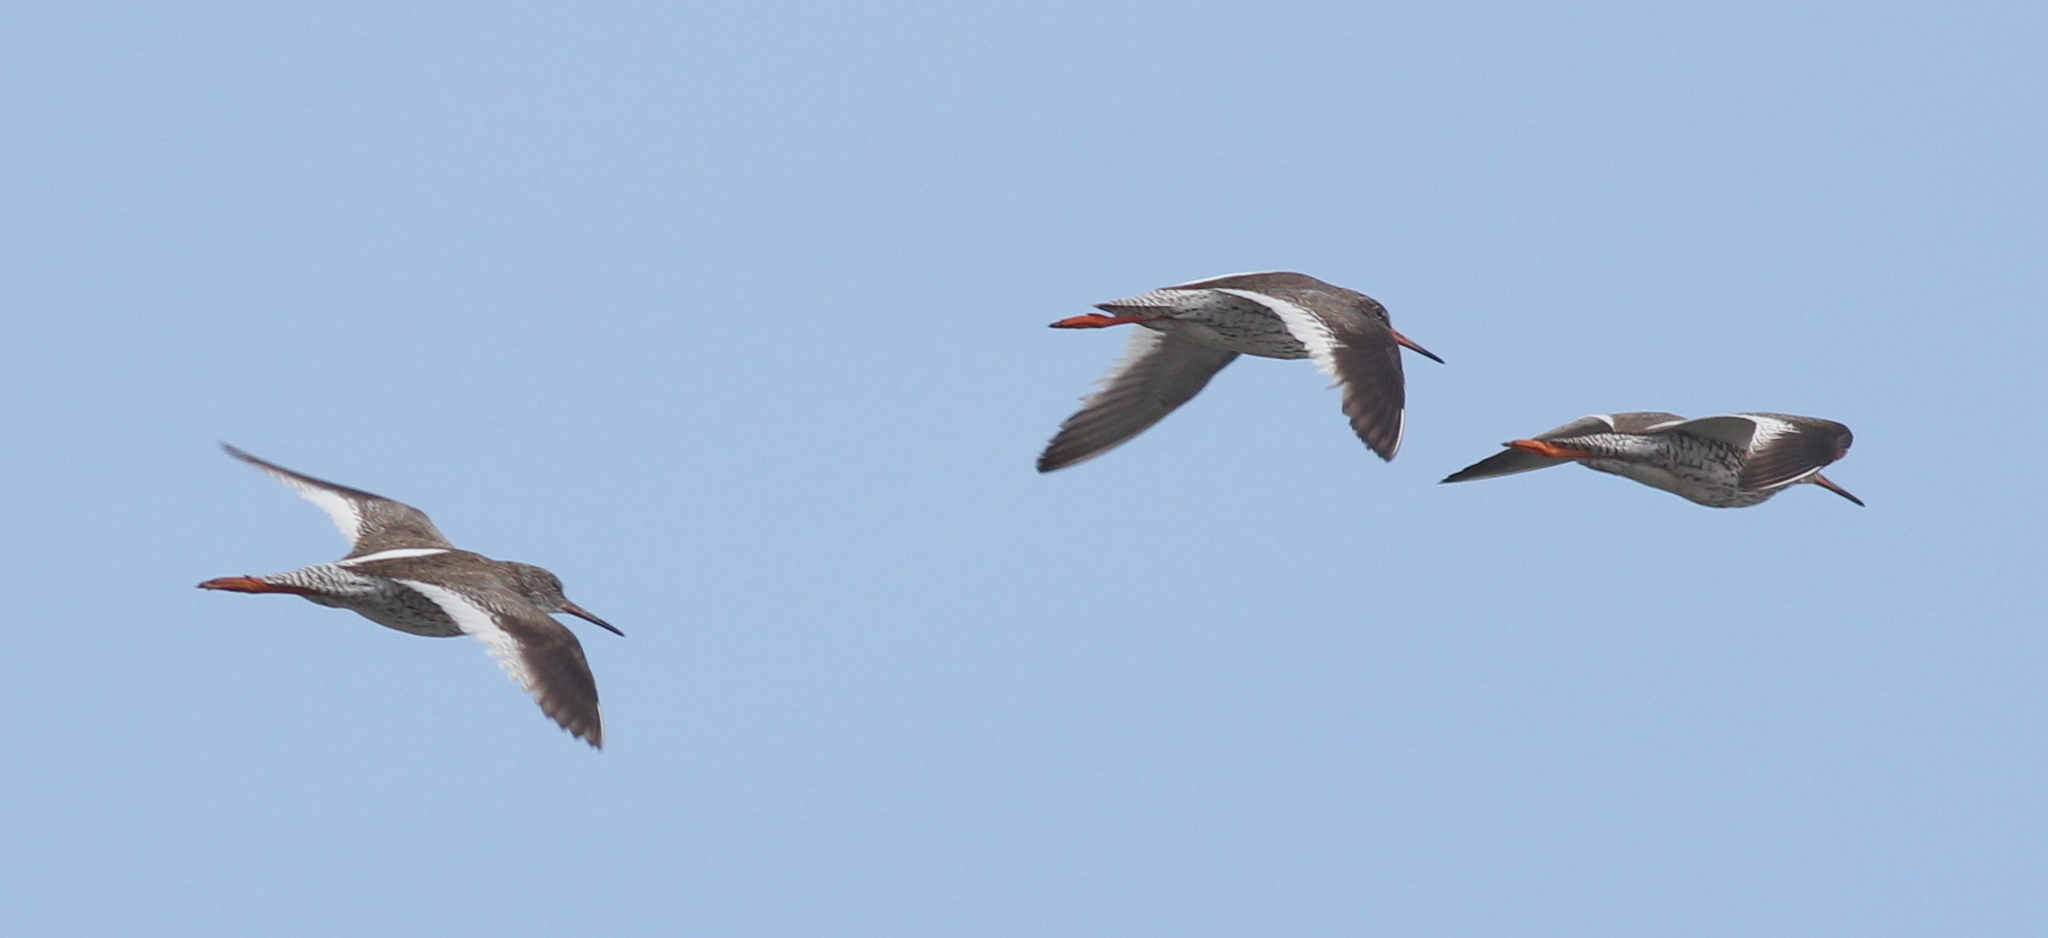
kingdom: Animalia
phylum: Chordata
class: Aves
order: Charadriiformes
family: Scolopacidae
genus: Tringa
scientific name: Tringa totanus
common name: Common redshank
